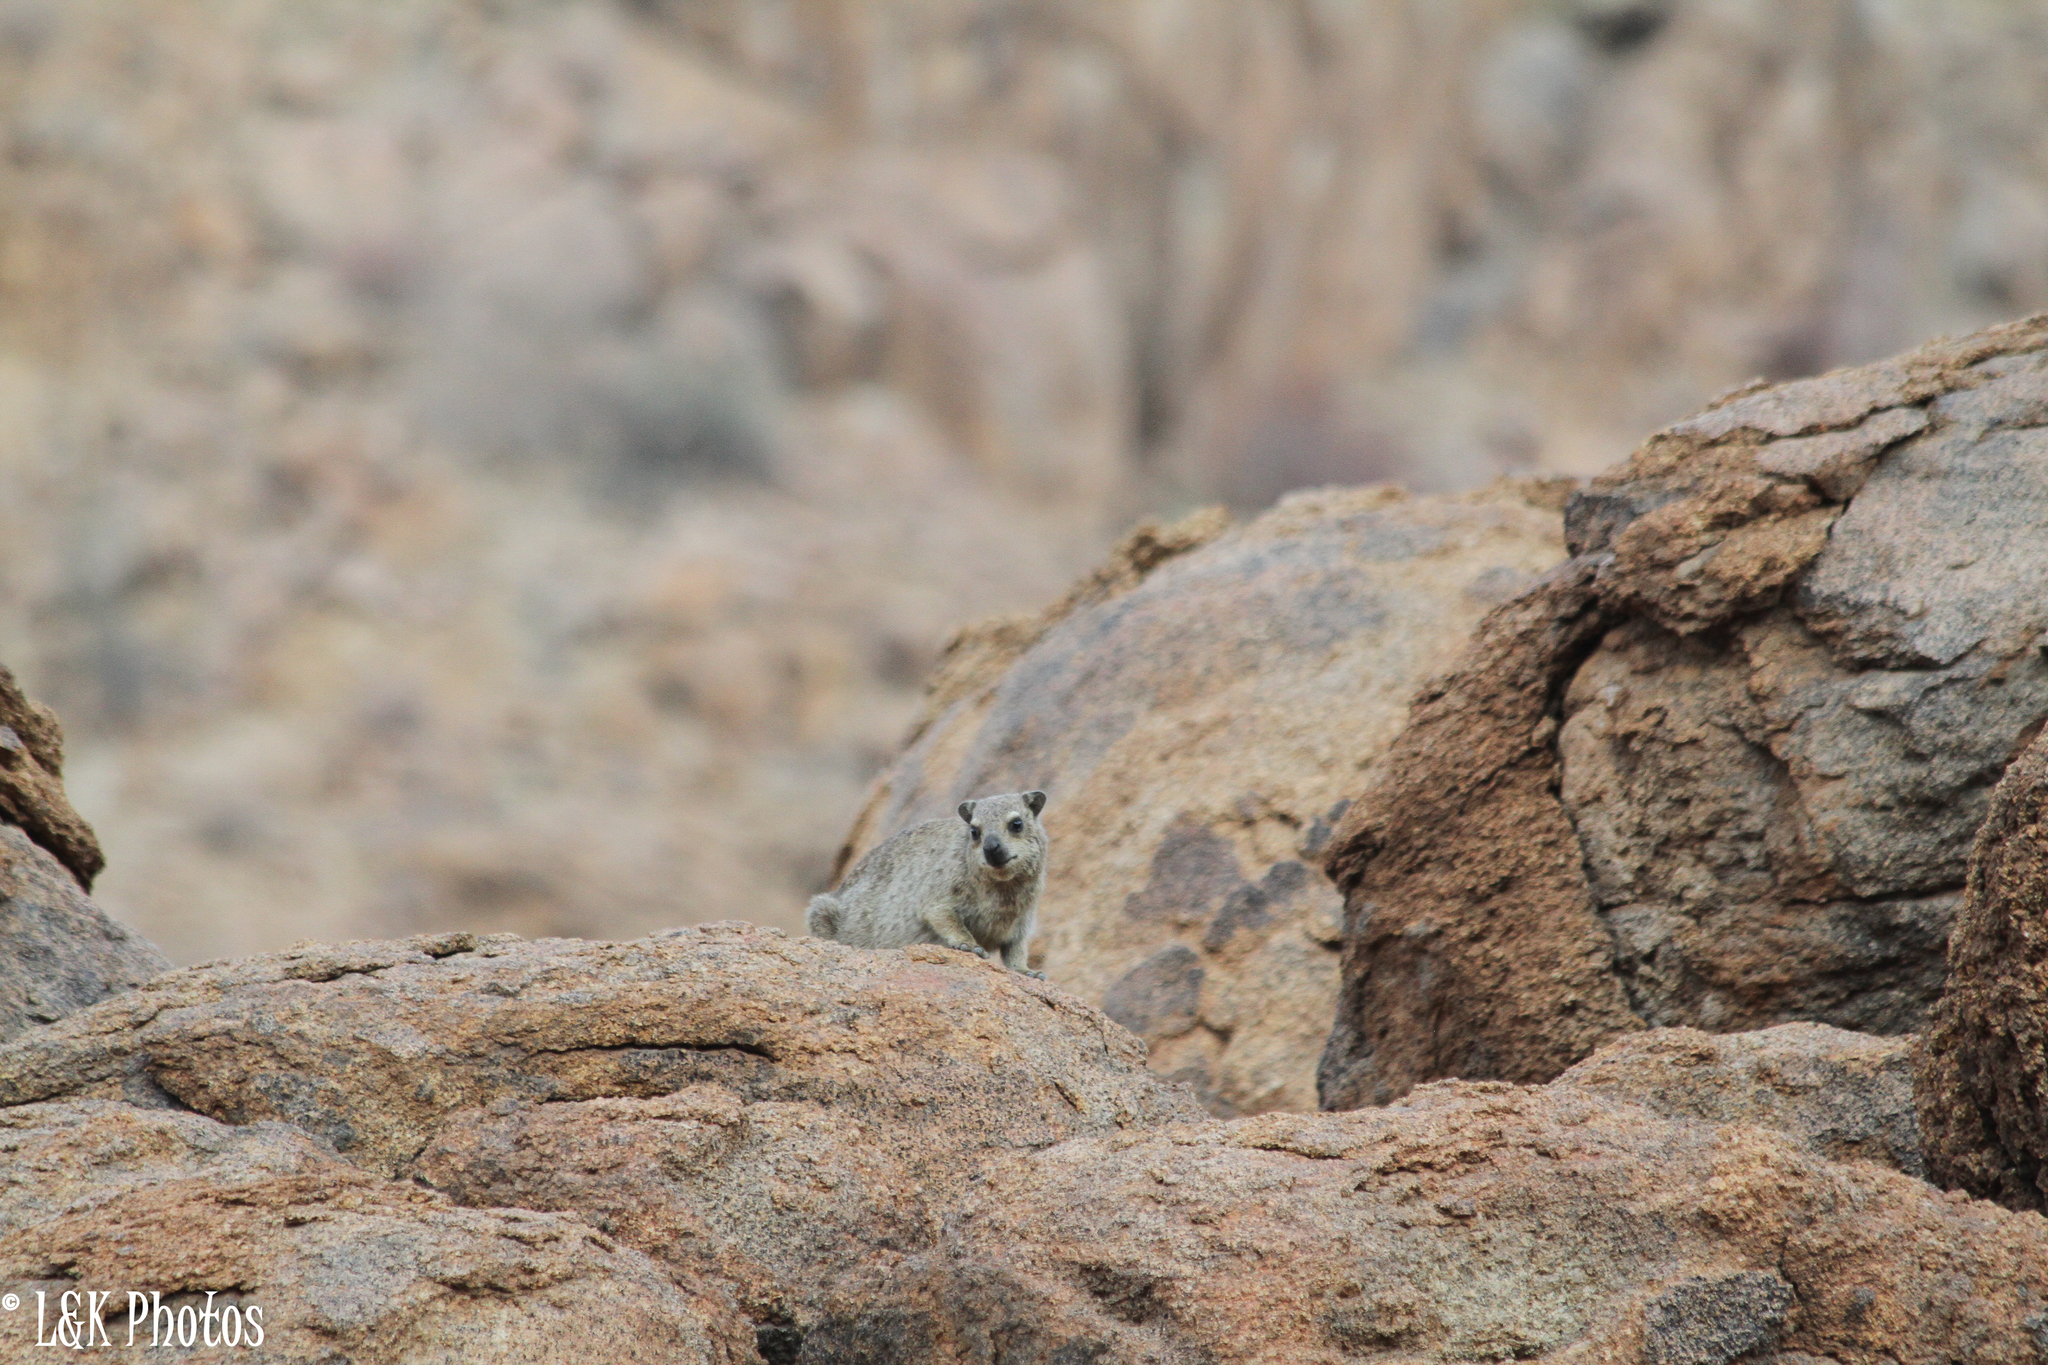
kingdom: Animalia
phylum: Chordata
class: Mammalia
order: Hyracoidea
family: Procaviidae
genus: Procavia
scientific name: Procavia capensis
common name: Rock hyrax
